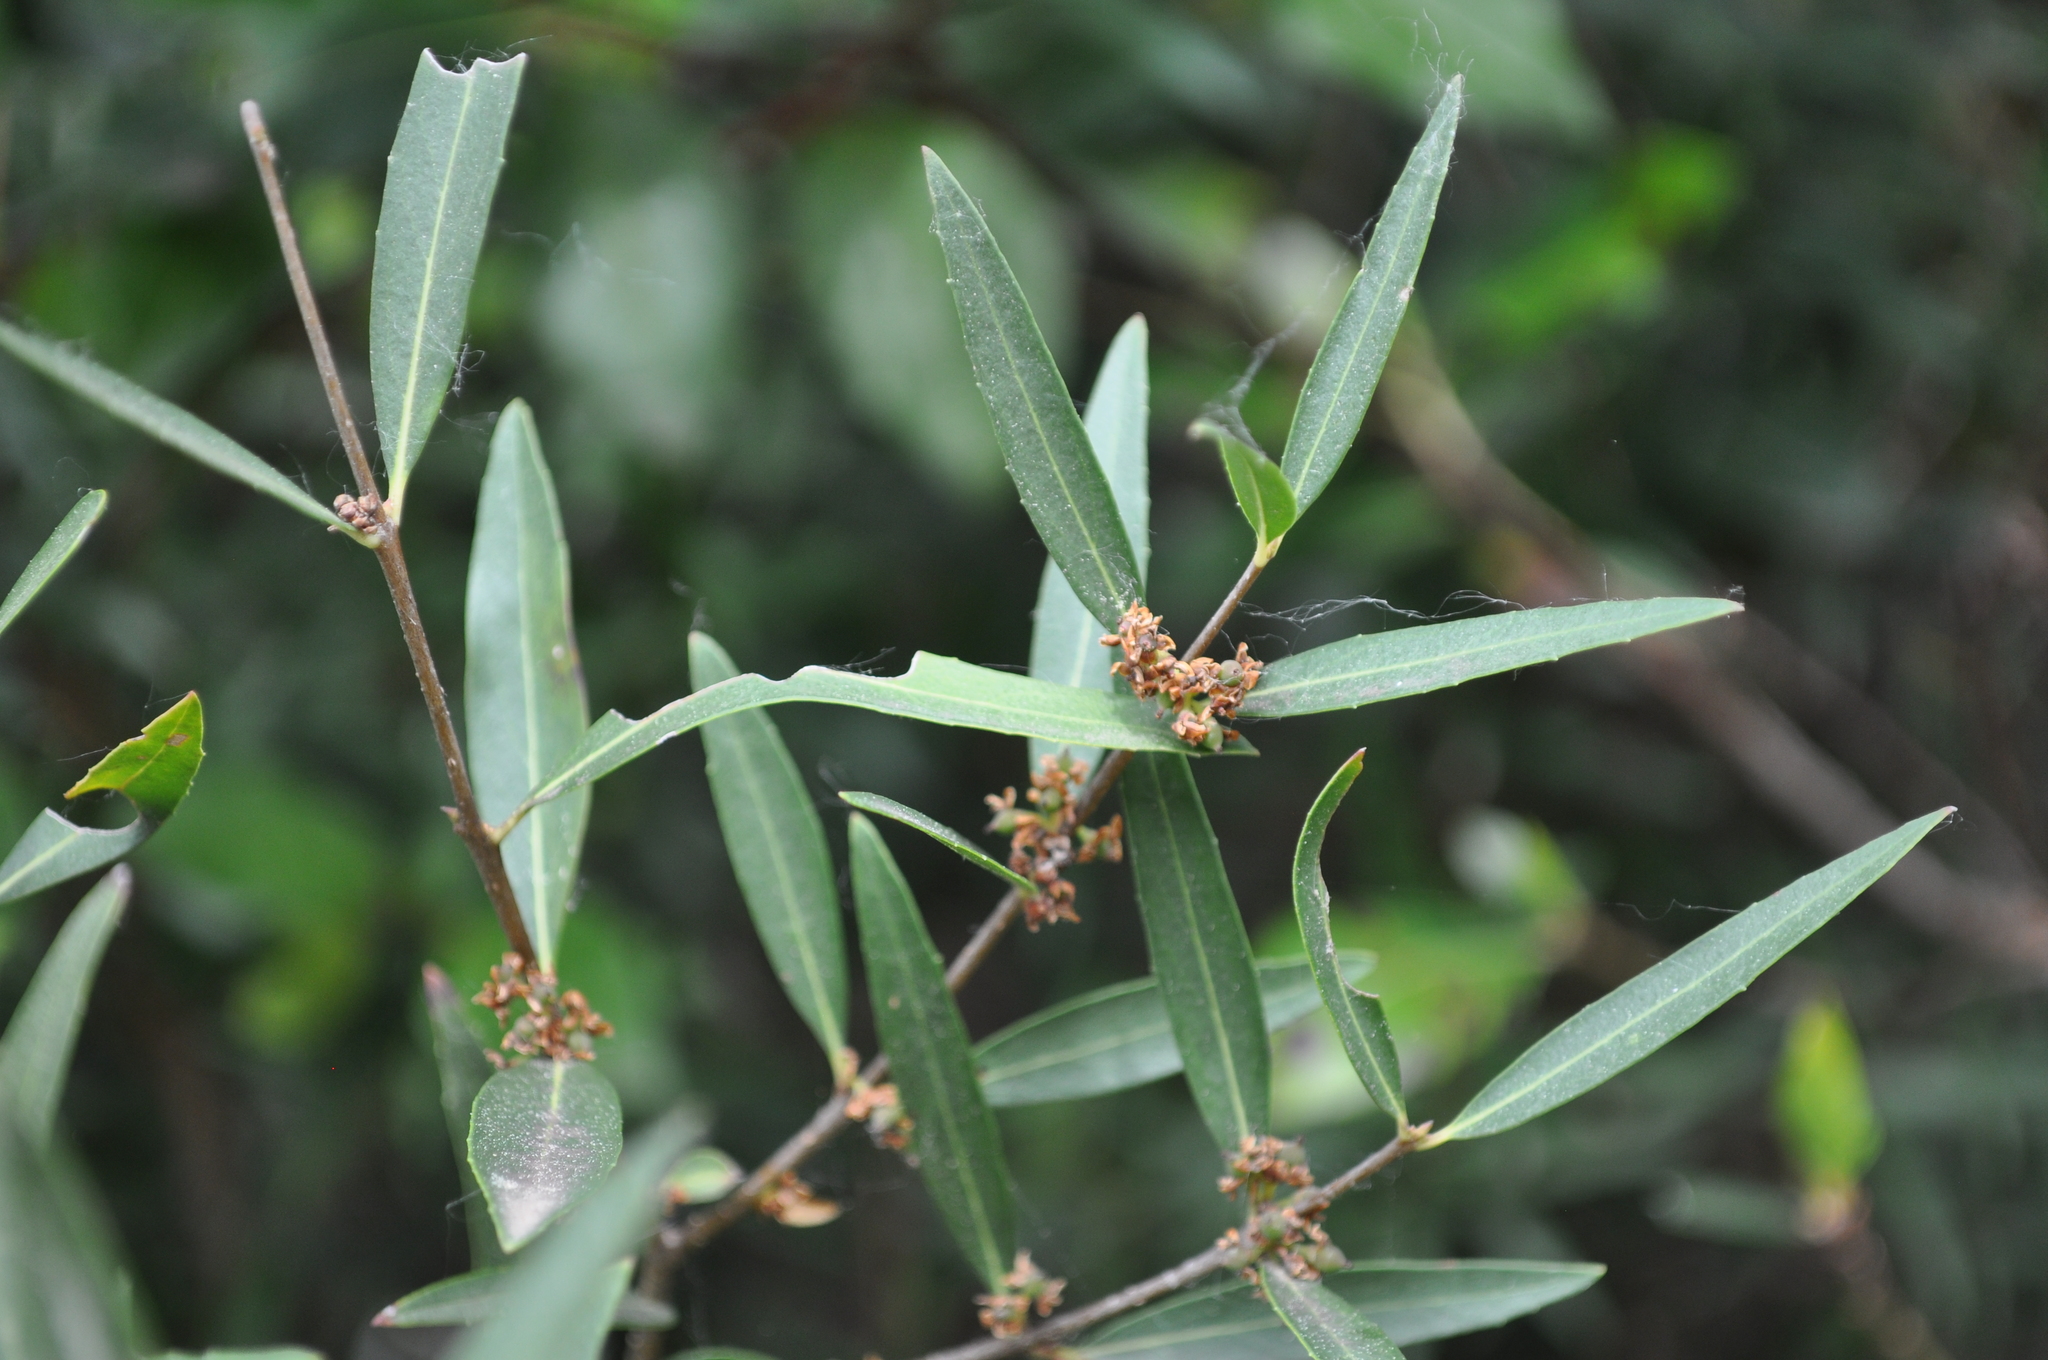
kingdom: Plantae
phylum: Tracheophyta
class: Magnoliopsida
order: Lamiales
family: Oleaceae
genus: Phillyrea
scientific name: Phillyrea angustifolia
